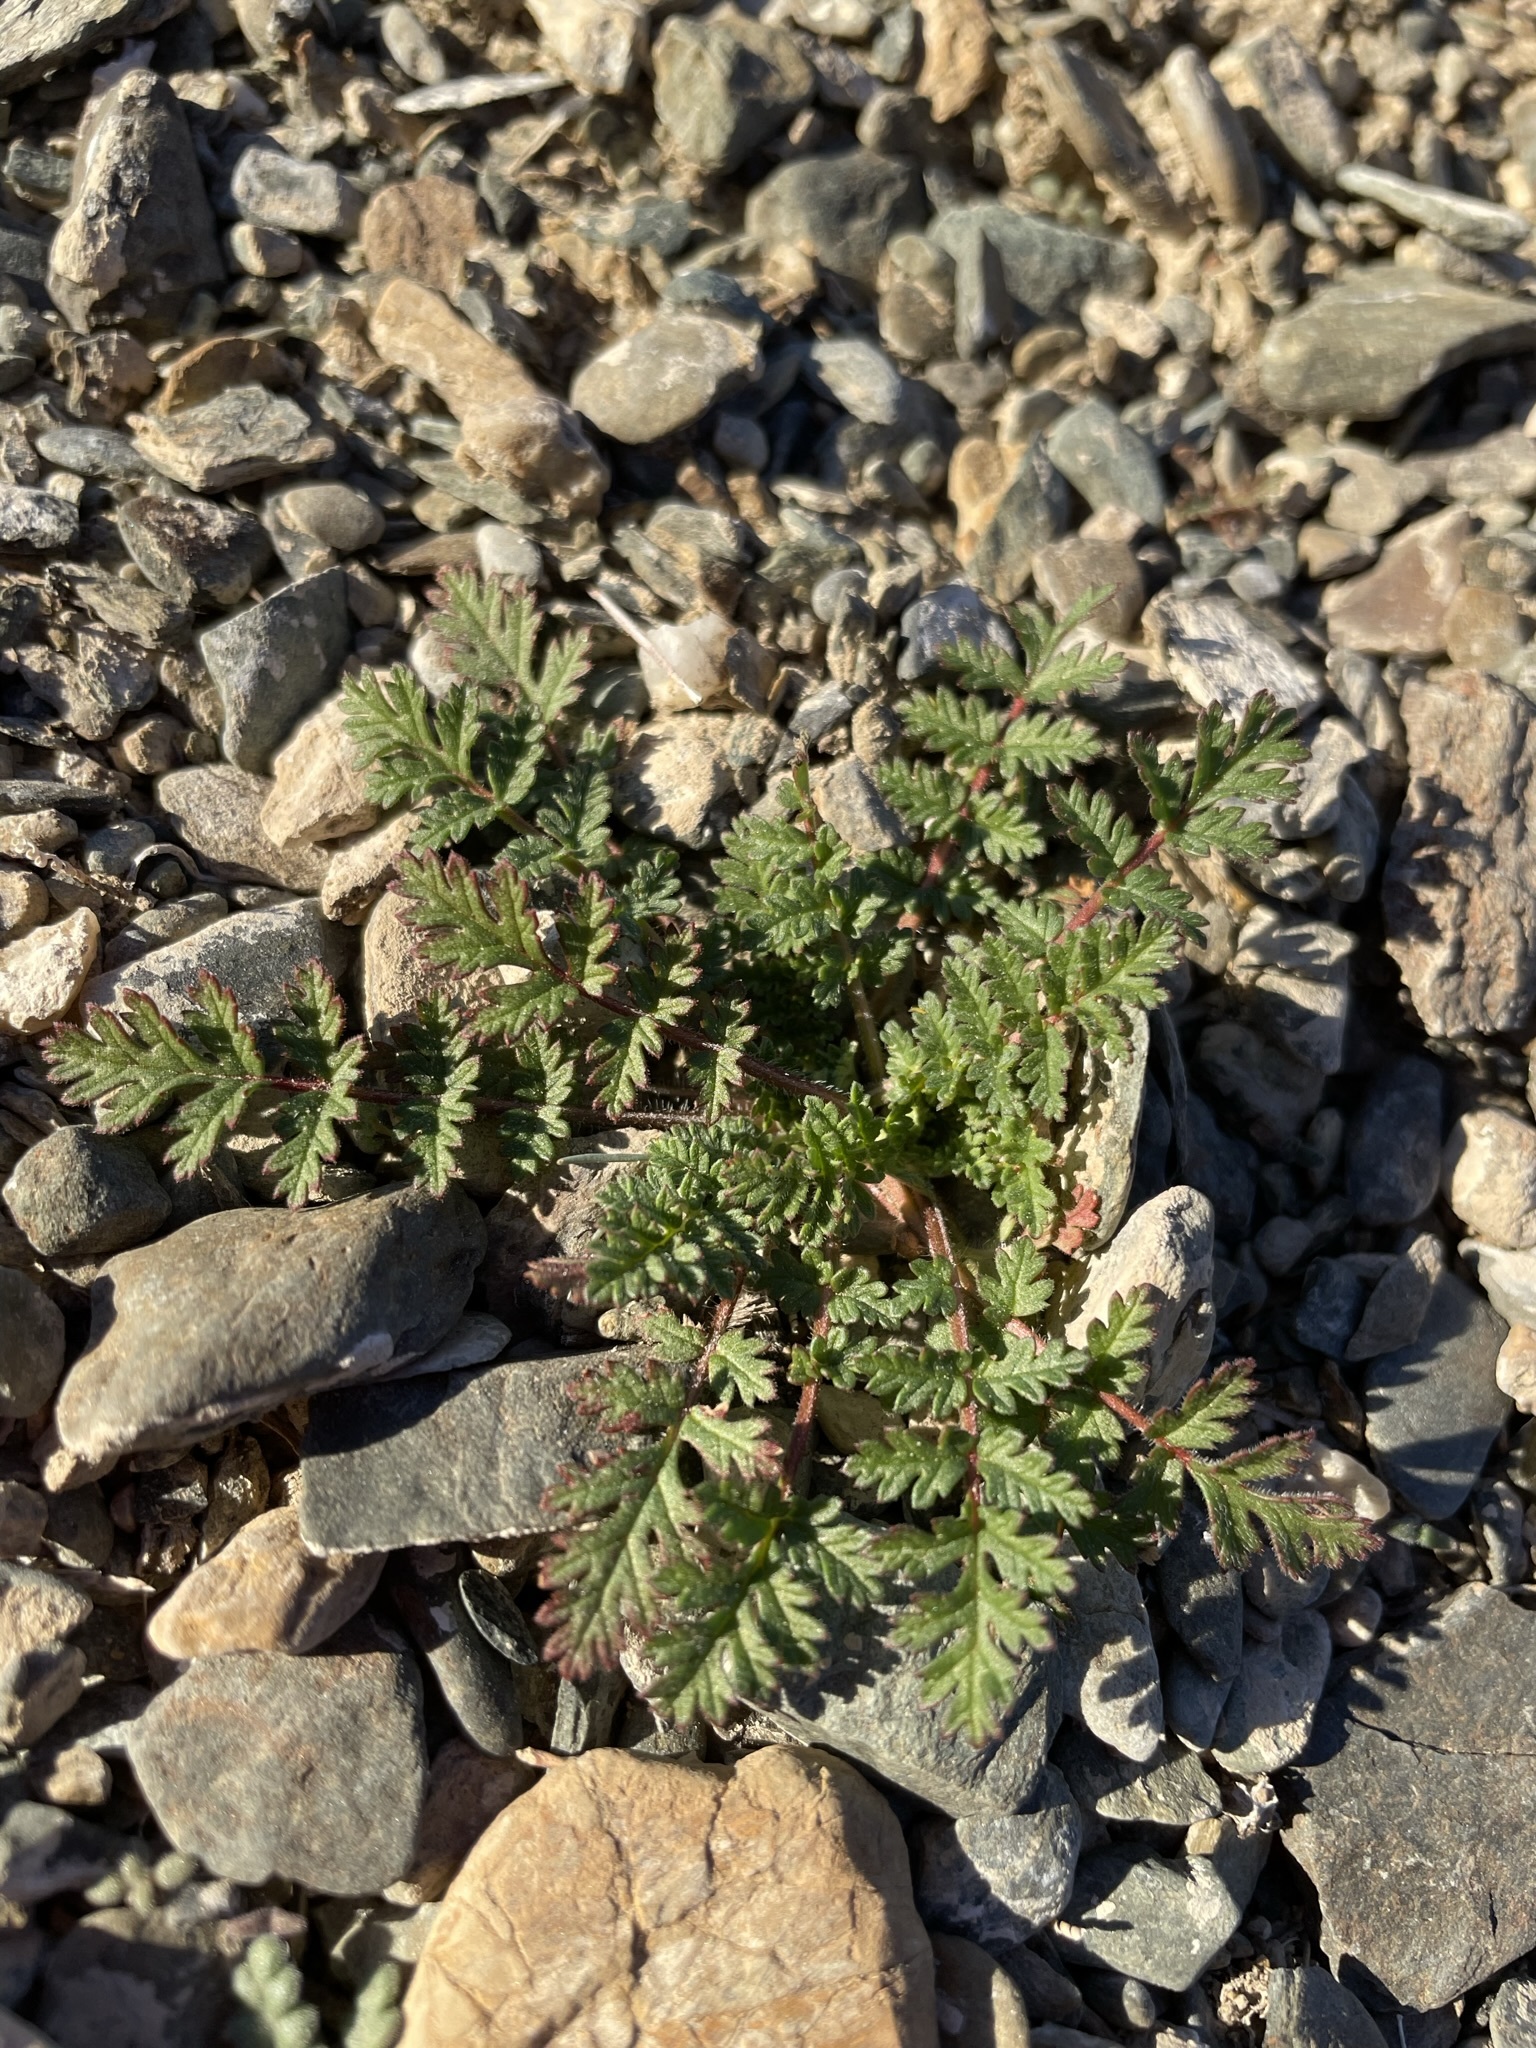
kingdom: Plantae
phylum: Tracheophyta
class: Magnoliopsida
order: Geraniales
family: Geraniaceae
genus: Erodium
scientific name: Erodium cicutarium
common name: Common stork's-bill
